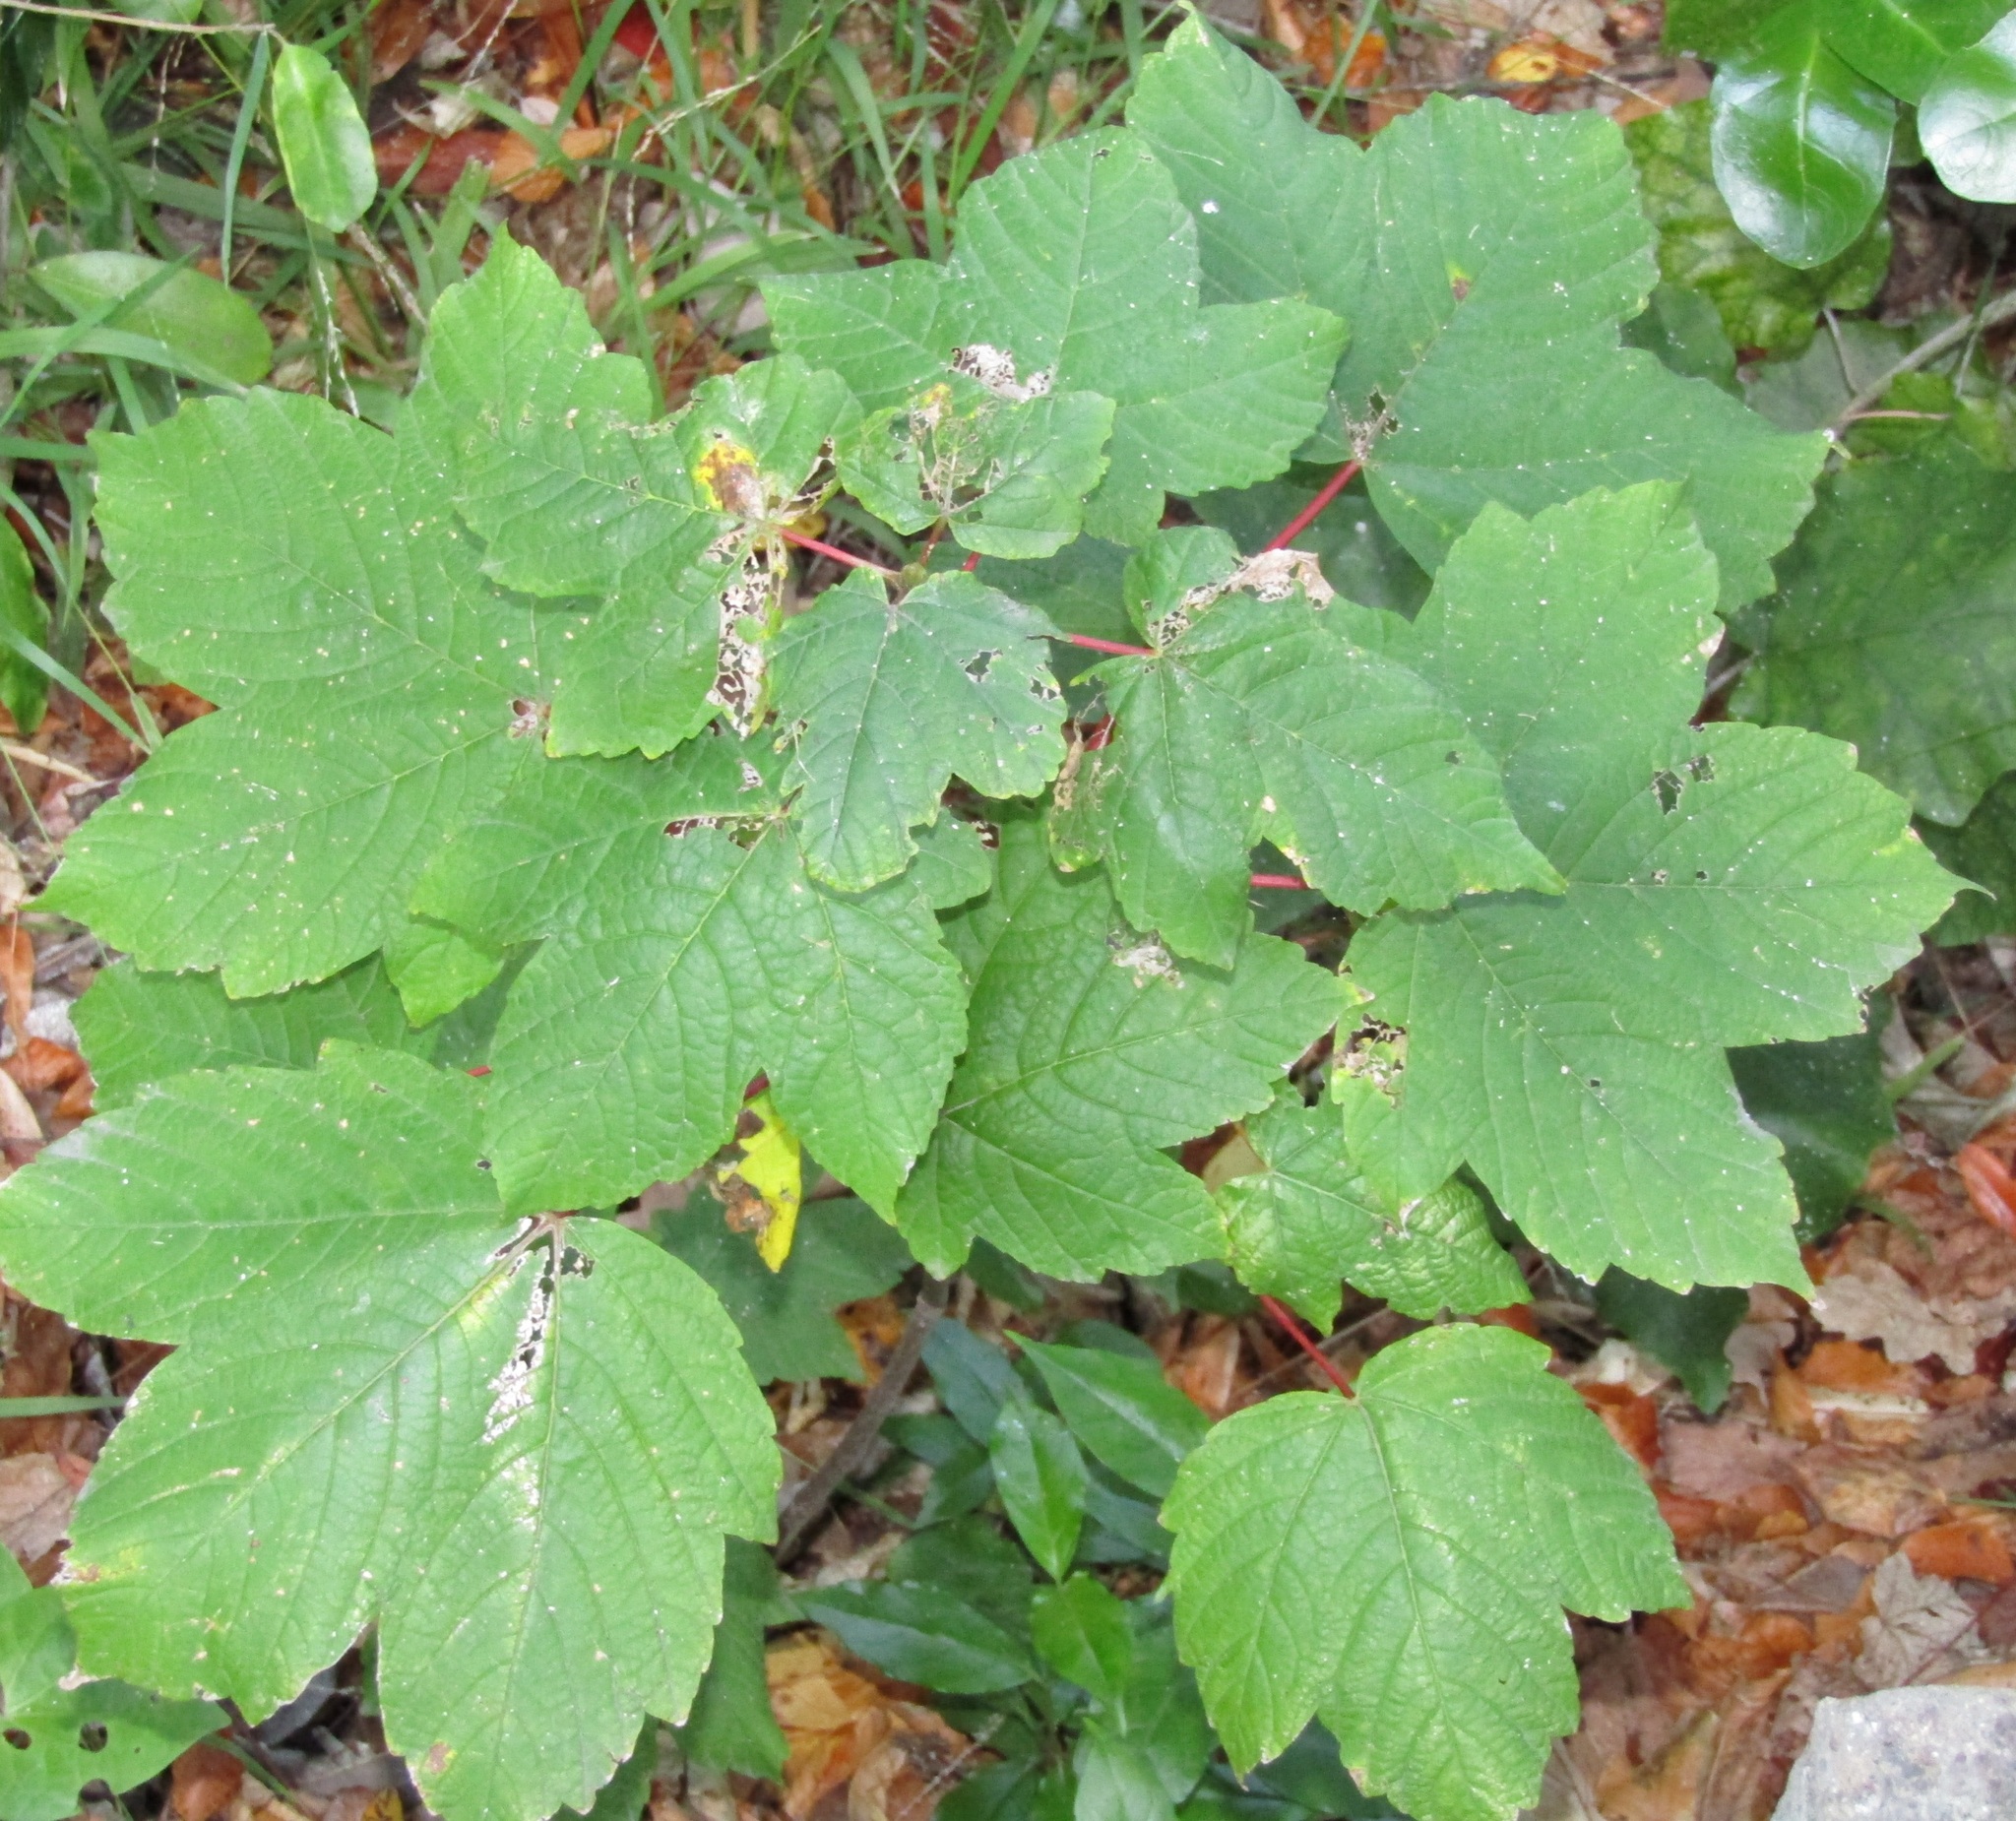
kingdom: Plantae
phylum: Tracheophyta
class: Magnoliopsida
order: Sapindales
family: Sapindaceae
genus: Acer
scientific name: Acer pseudoplatanus
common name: Sycamore
